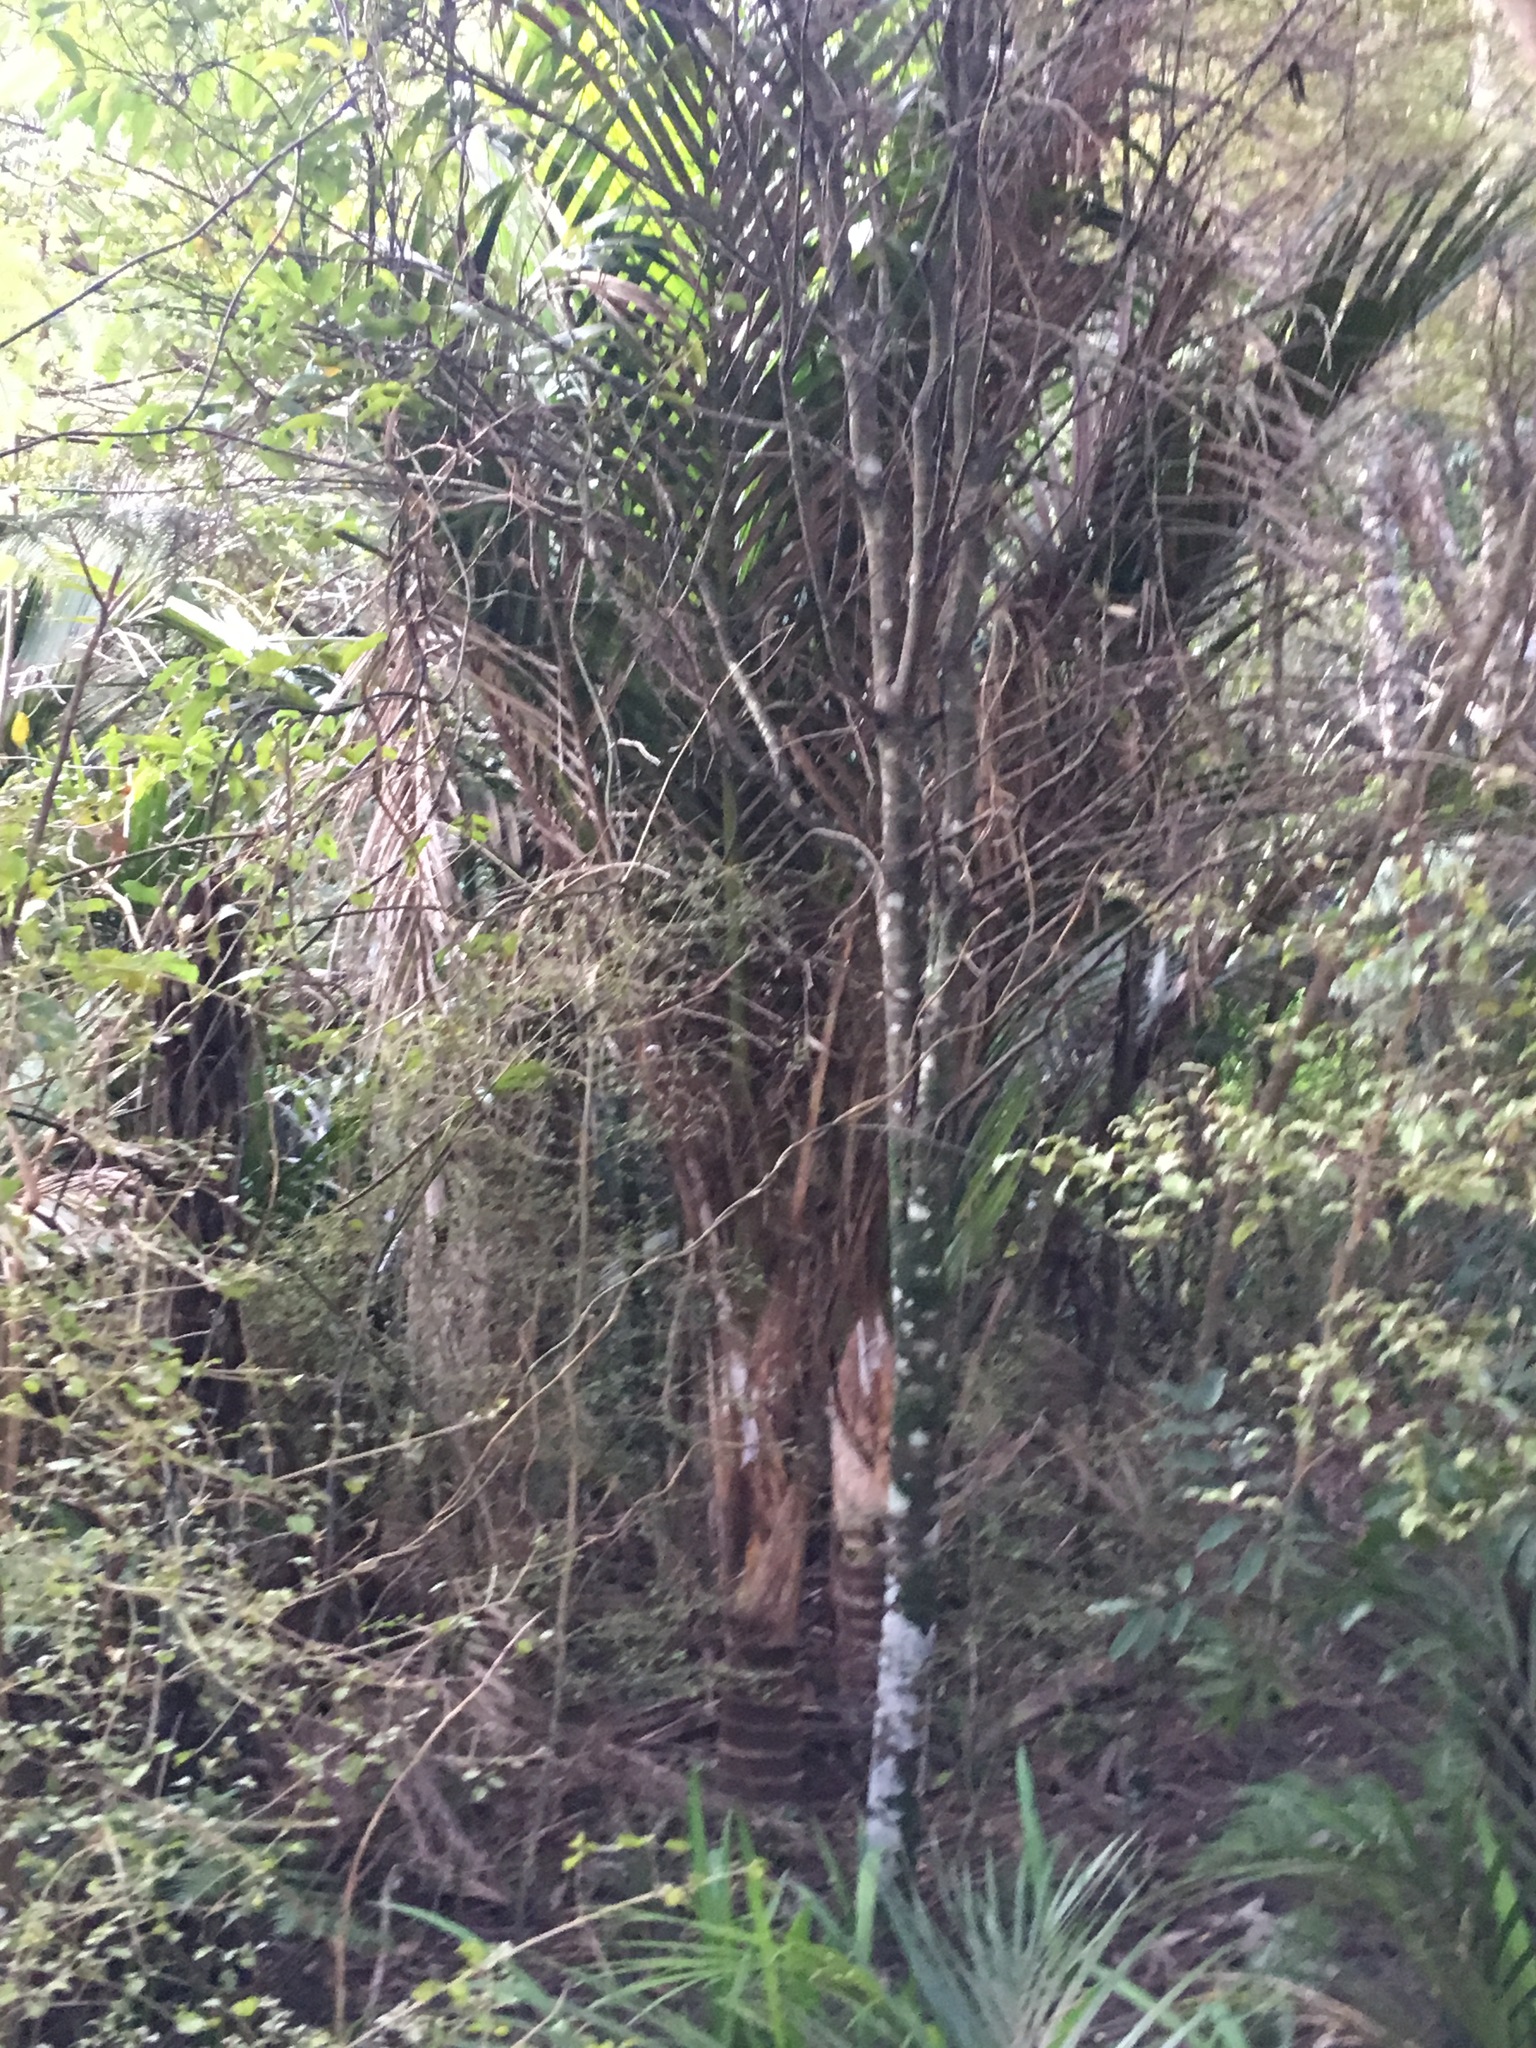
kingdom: Plantae
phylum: Tracheophyta
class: Liliopsida
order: Arecales
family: Arecaceae
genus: Rhopalostylis
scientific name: Rhopalostylis sapida
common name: Feather-duster palm
